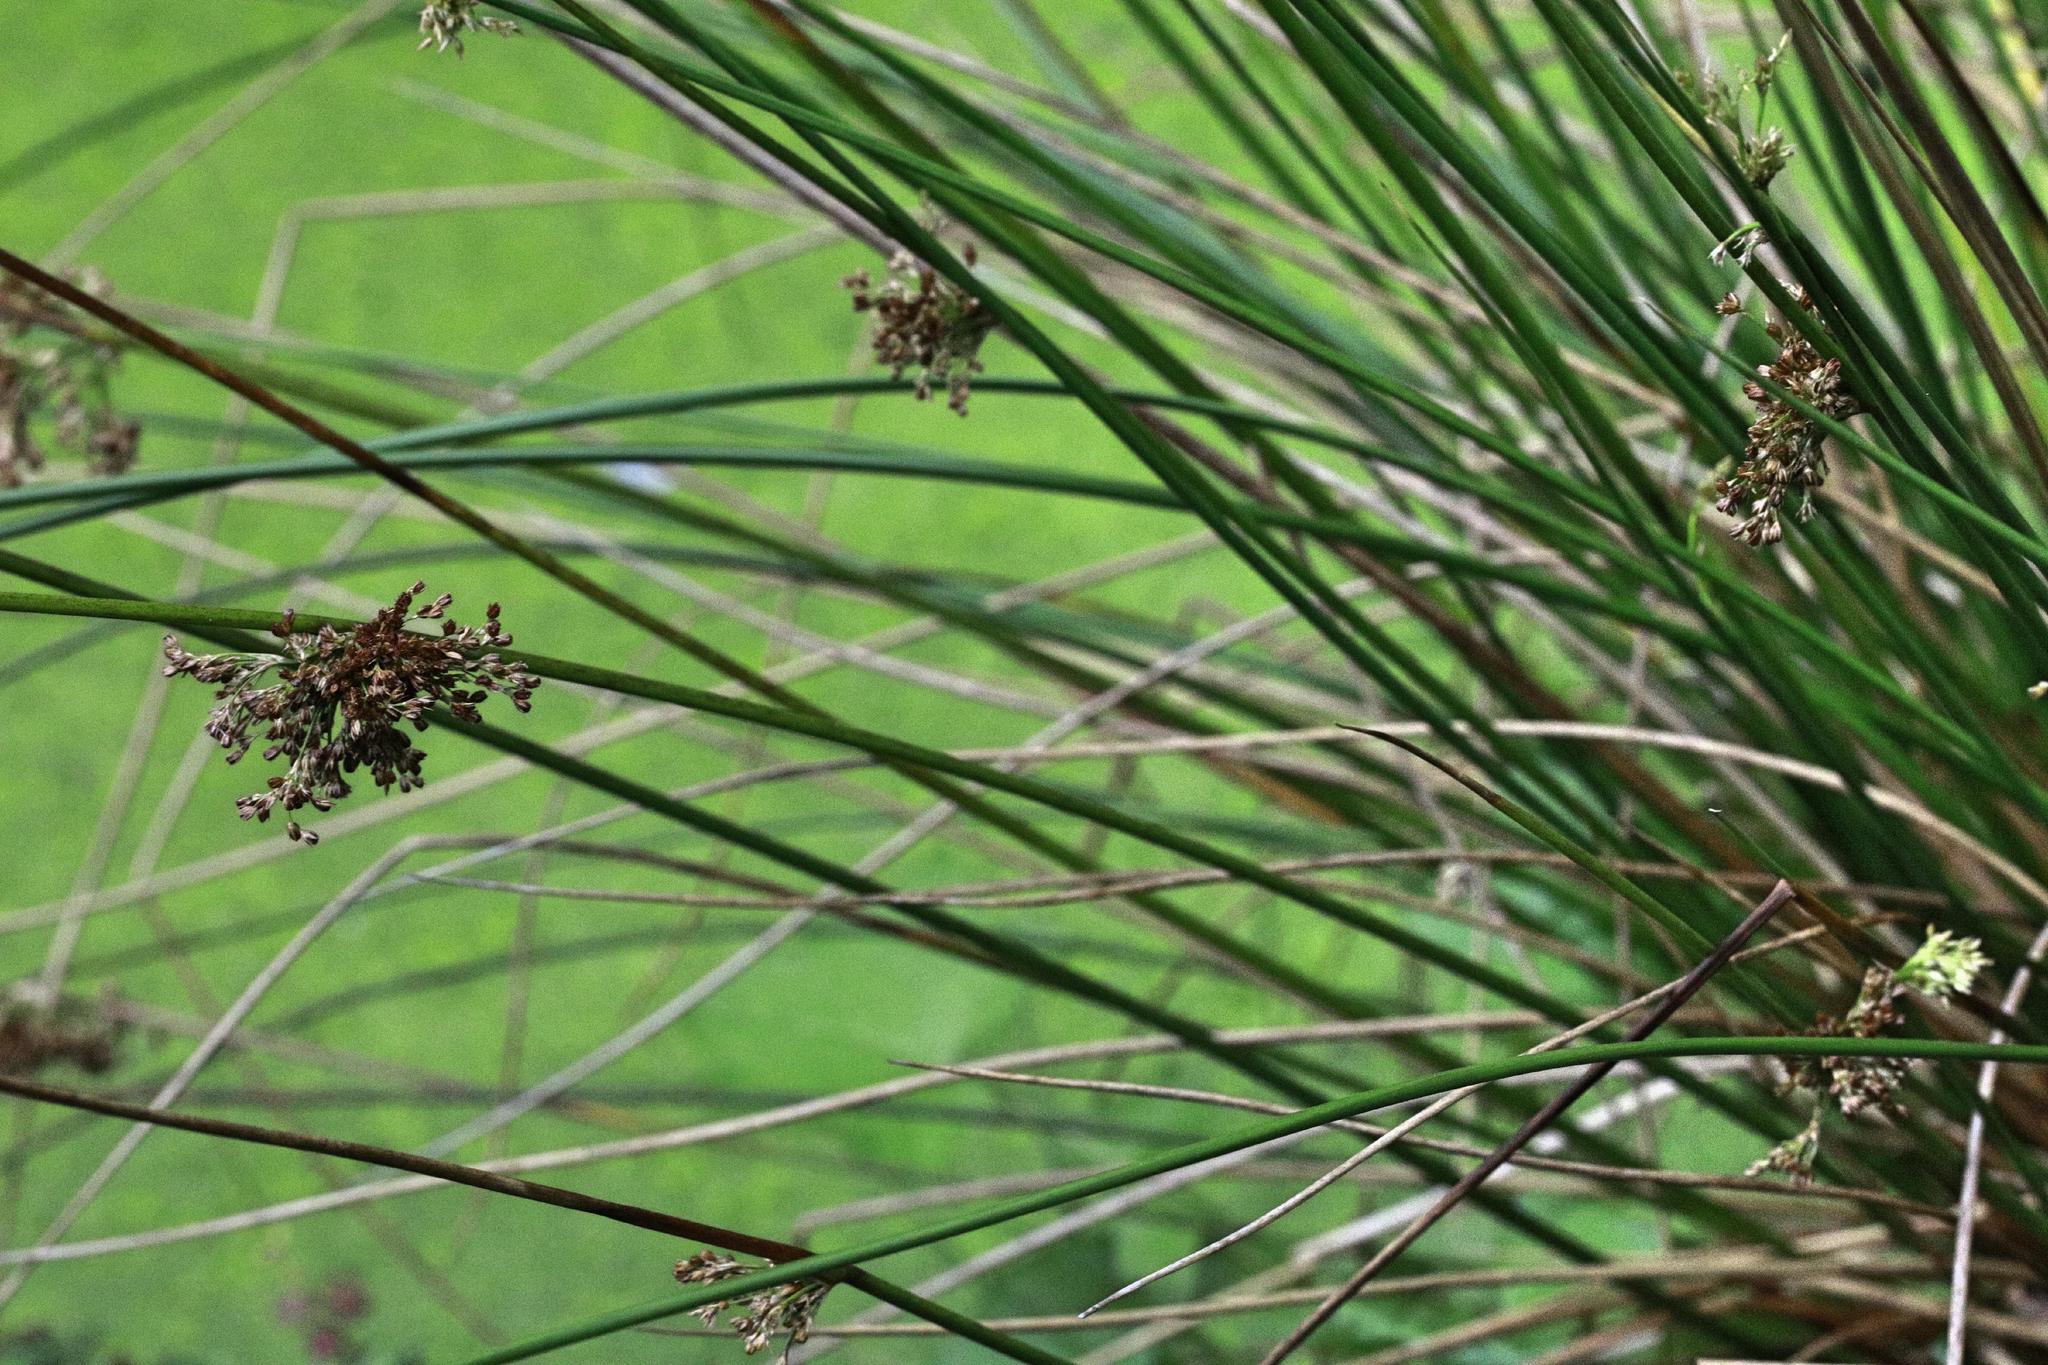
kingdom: Plantae
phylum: Tracheophyta
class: Liliopsida
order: Poales
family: Juncaceae
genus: Juncus
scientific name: Juncus effusus
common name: Soft rush
